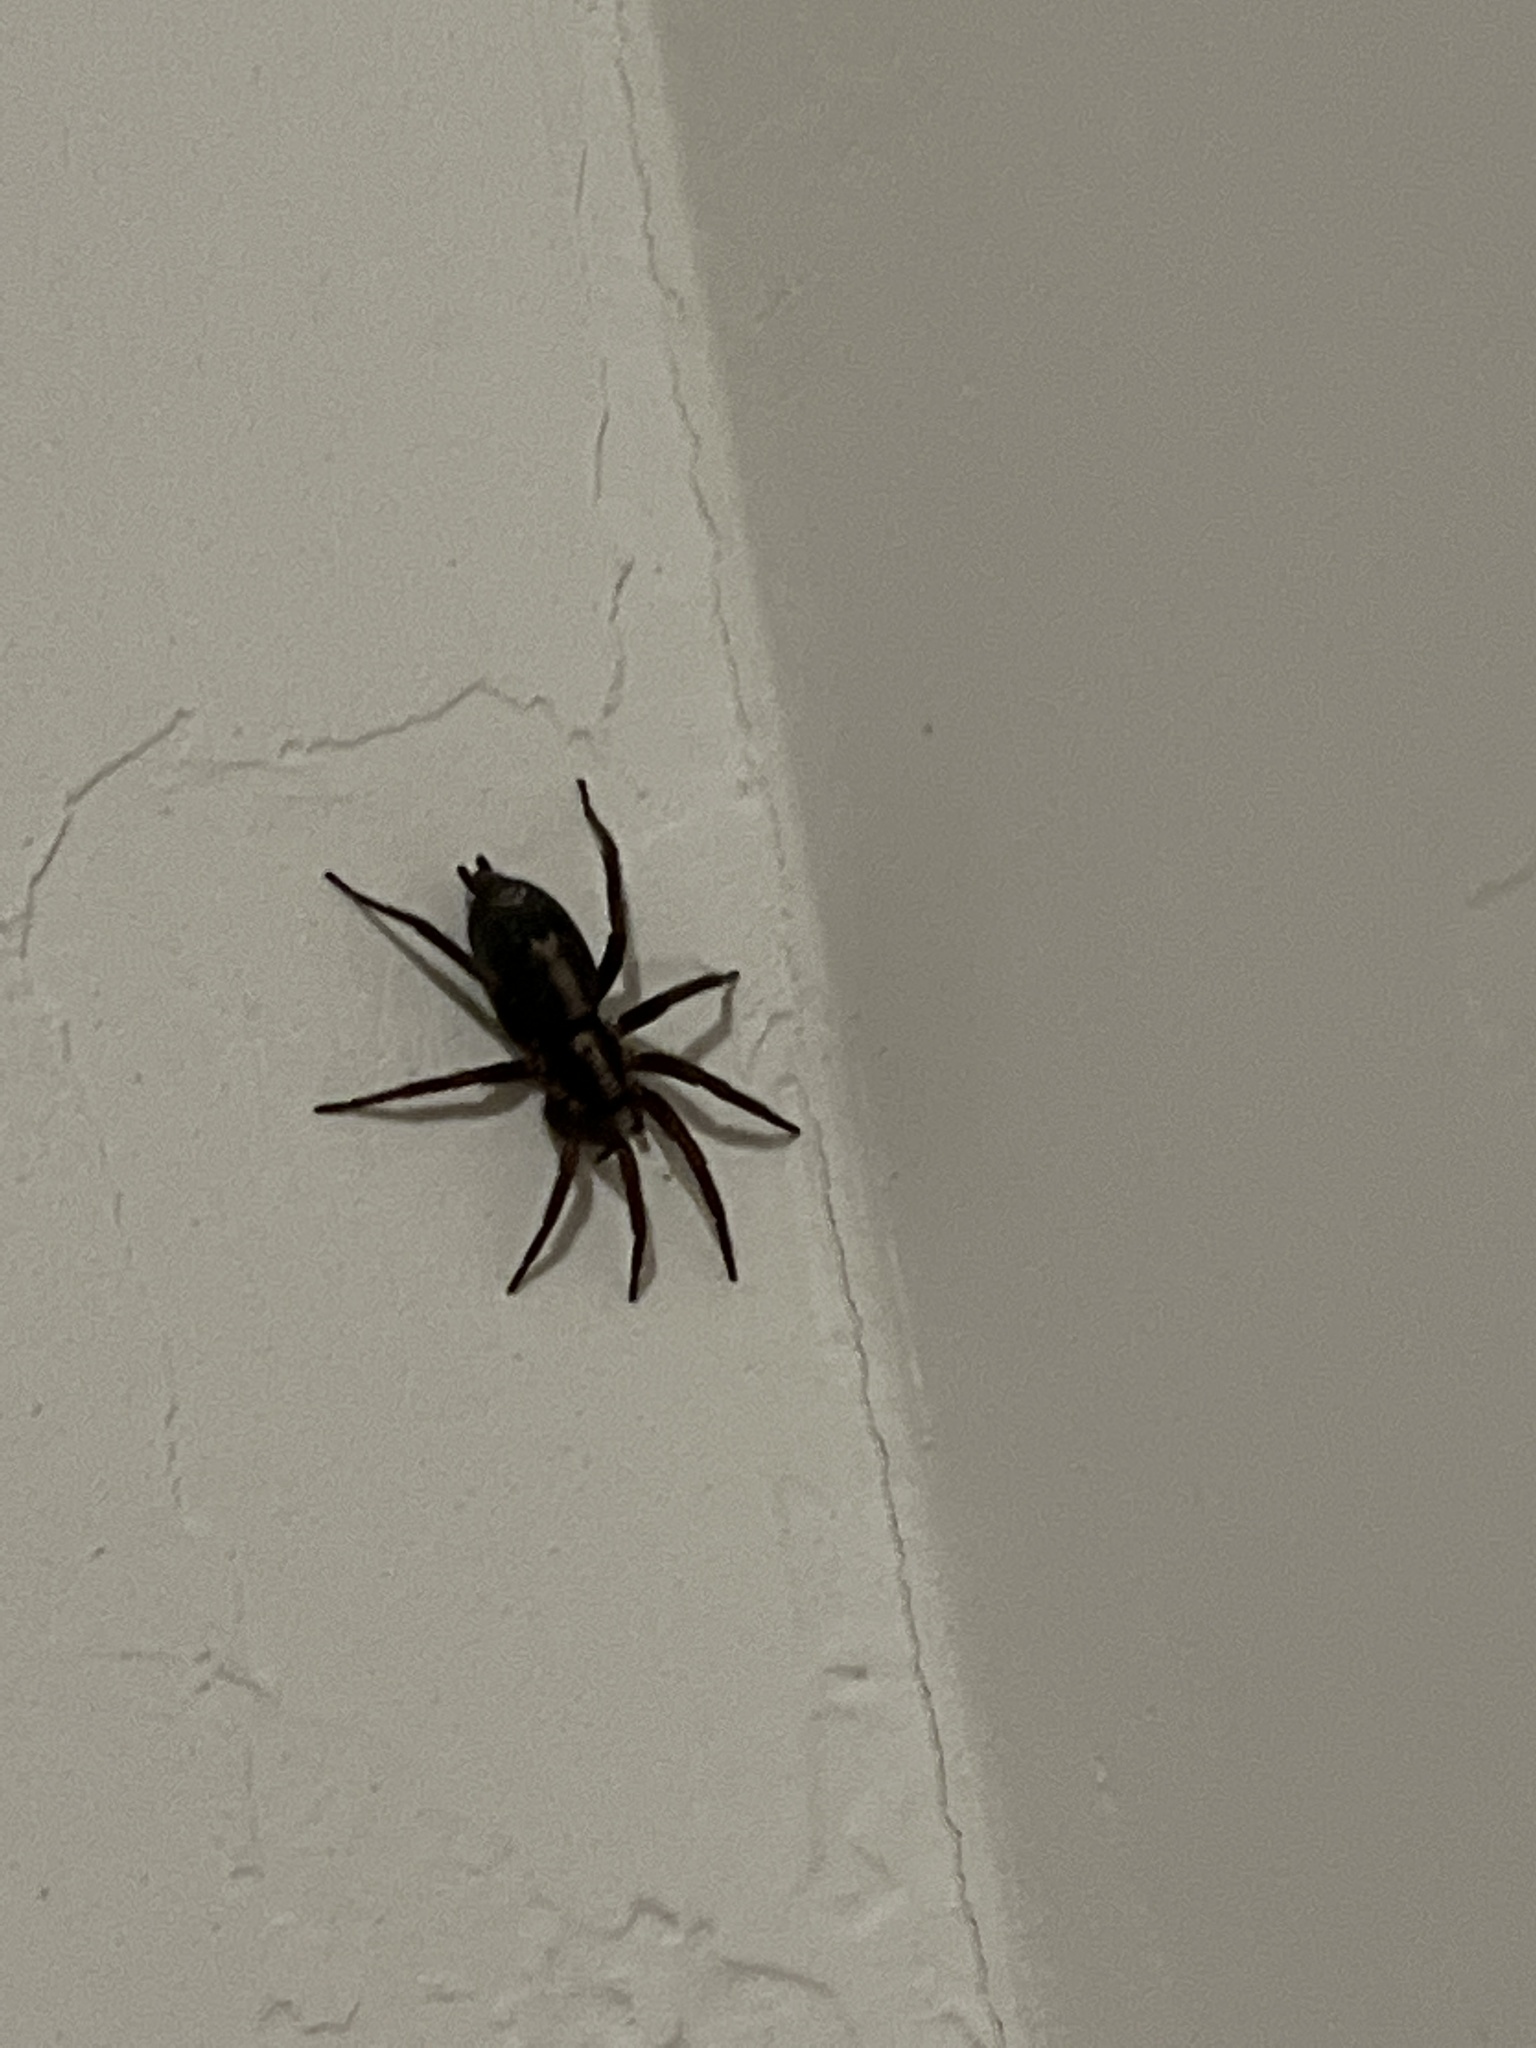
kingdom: Animalia
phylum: Arthropoda
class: Arachnida
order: Araneae
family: Gnaphosidae
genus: Herpyllus
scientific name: Herpyllus propinquus
